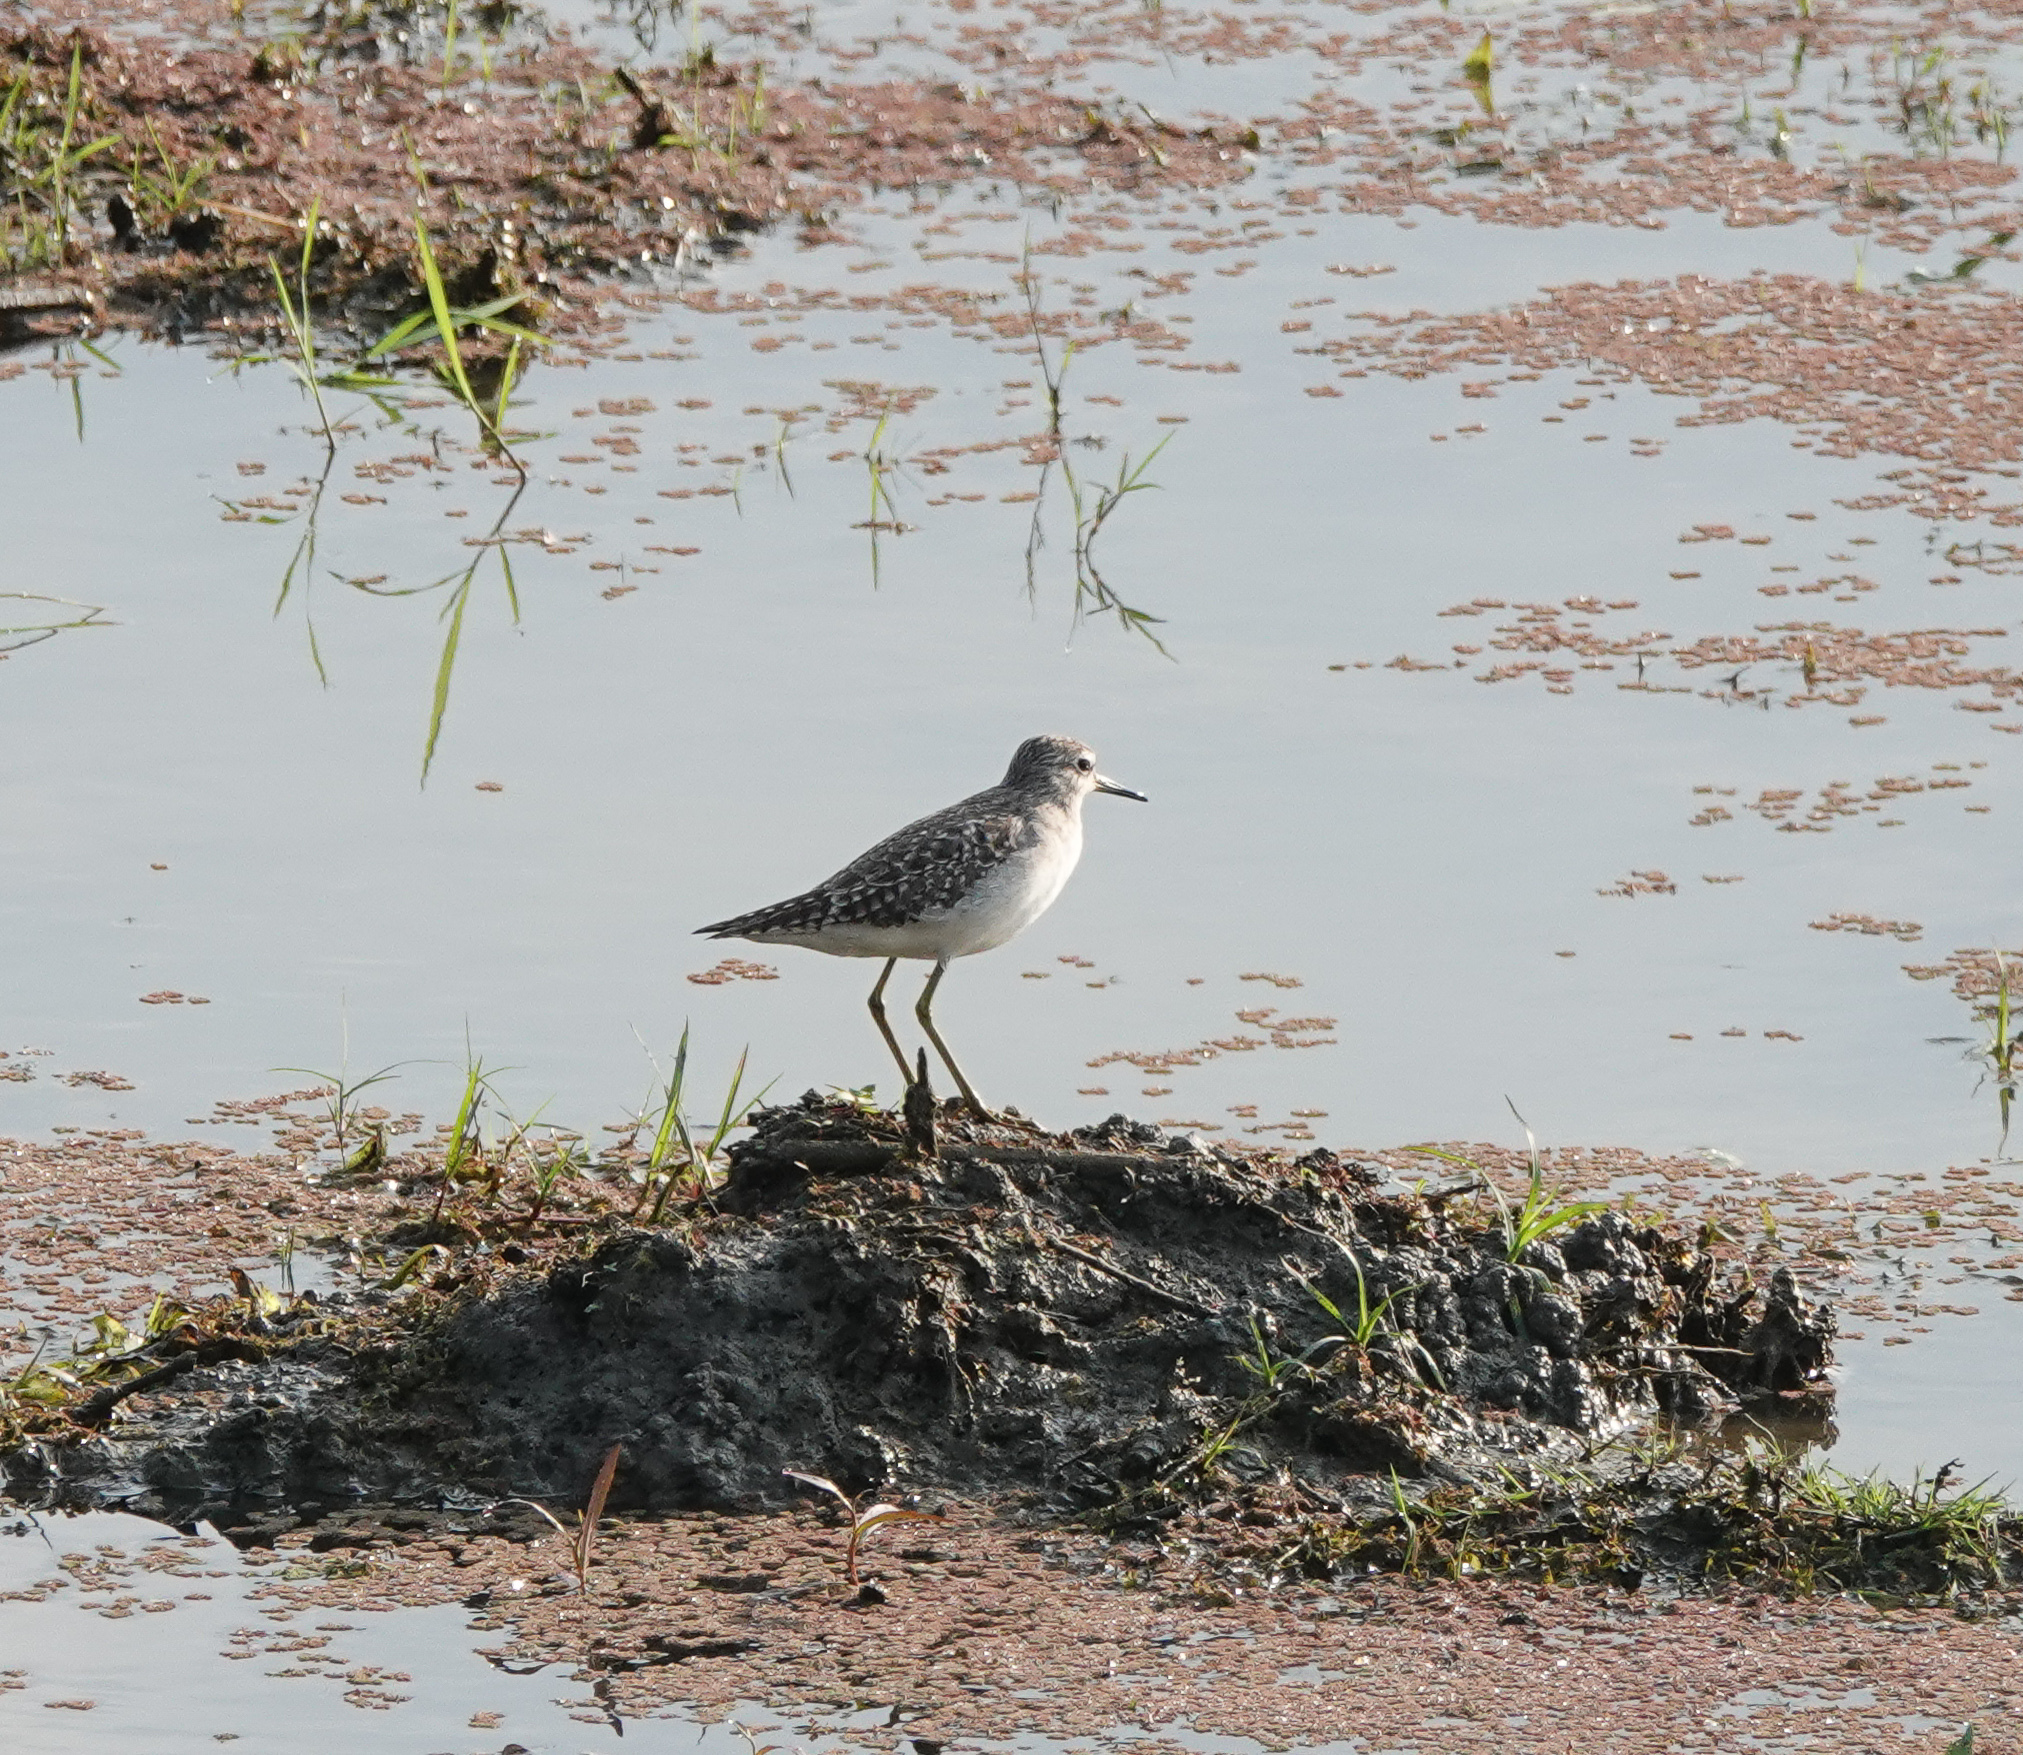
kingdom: Animalia
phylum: Chordata
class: Aves
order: Charadriiformes
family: Scolopacidae
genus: Tringa
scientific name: Tringa glareola
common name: Wood sandpiper
